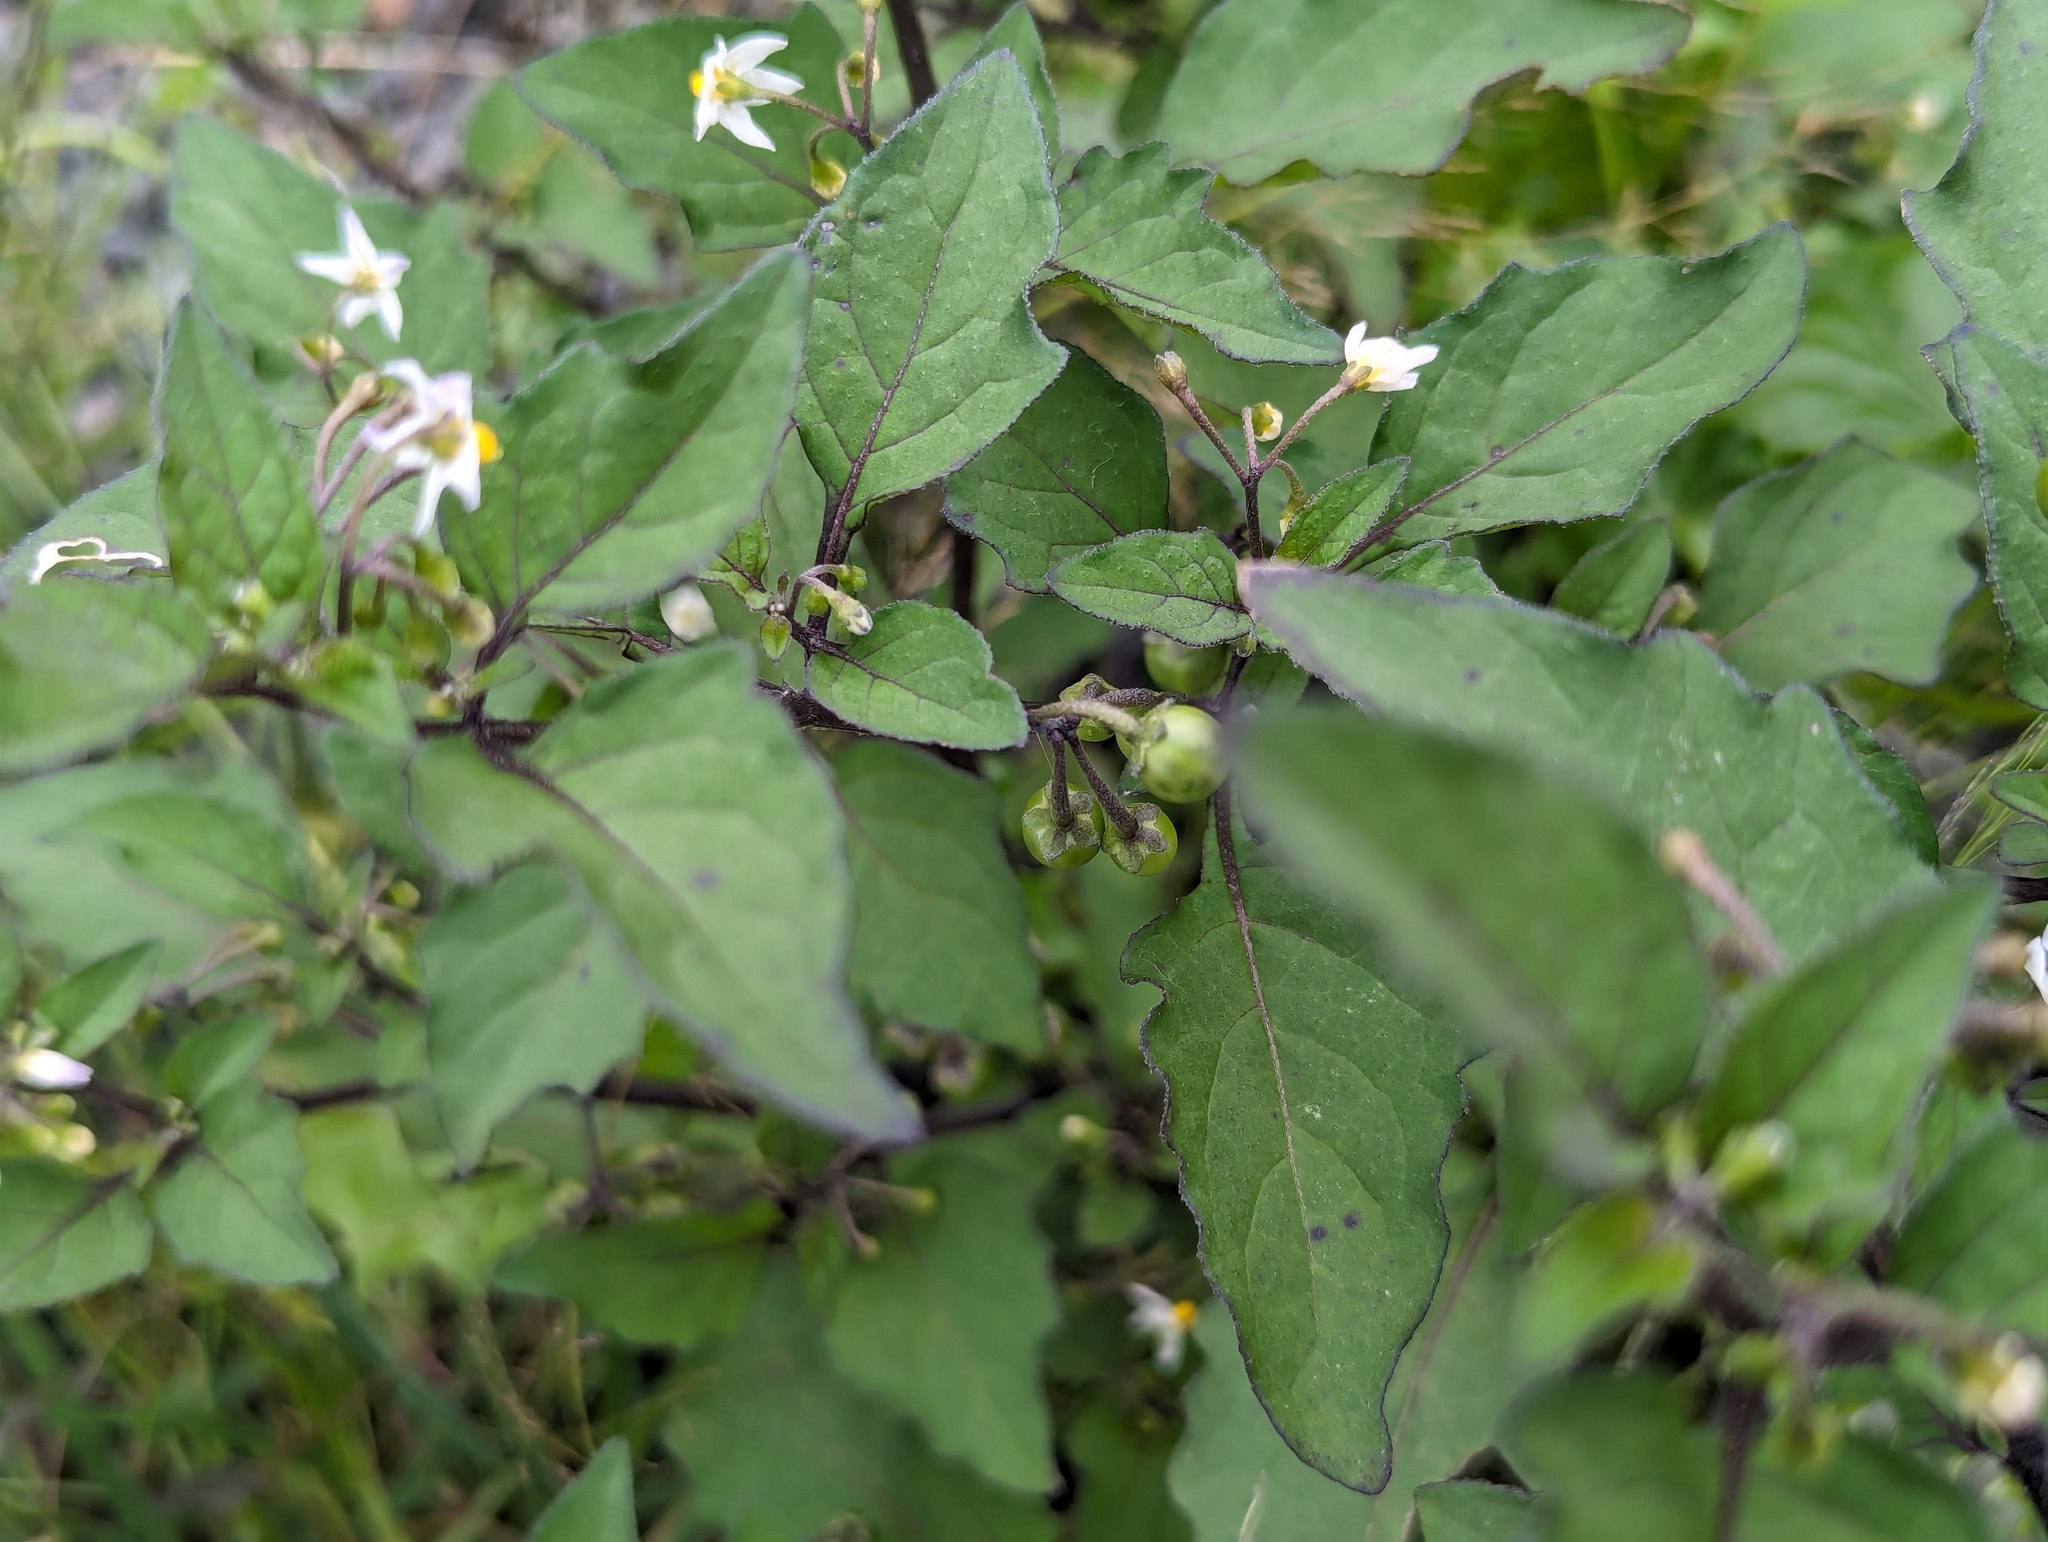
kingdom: Plantae
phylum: Tracheophyta
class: Magnoliopsida
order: Solanales
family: Solanaceae
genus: Solanum
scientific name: Solanum nigrum
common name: Black nightshade
